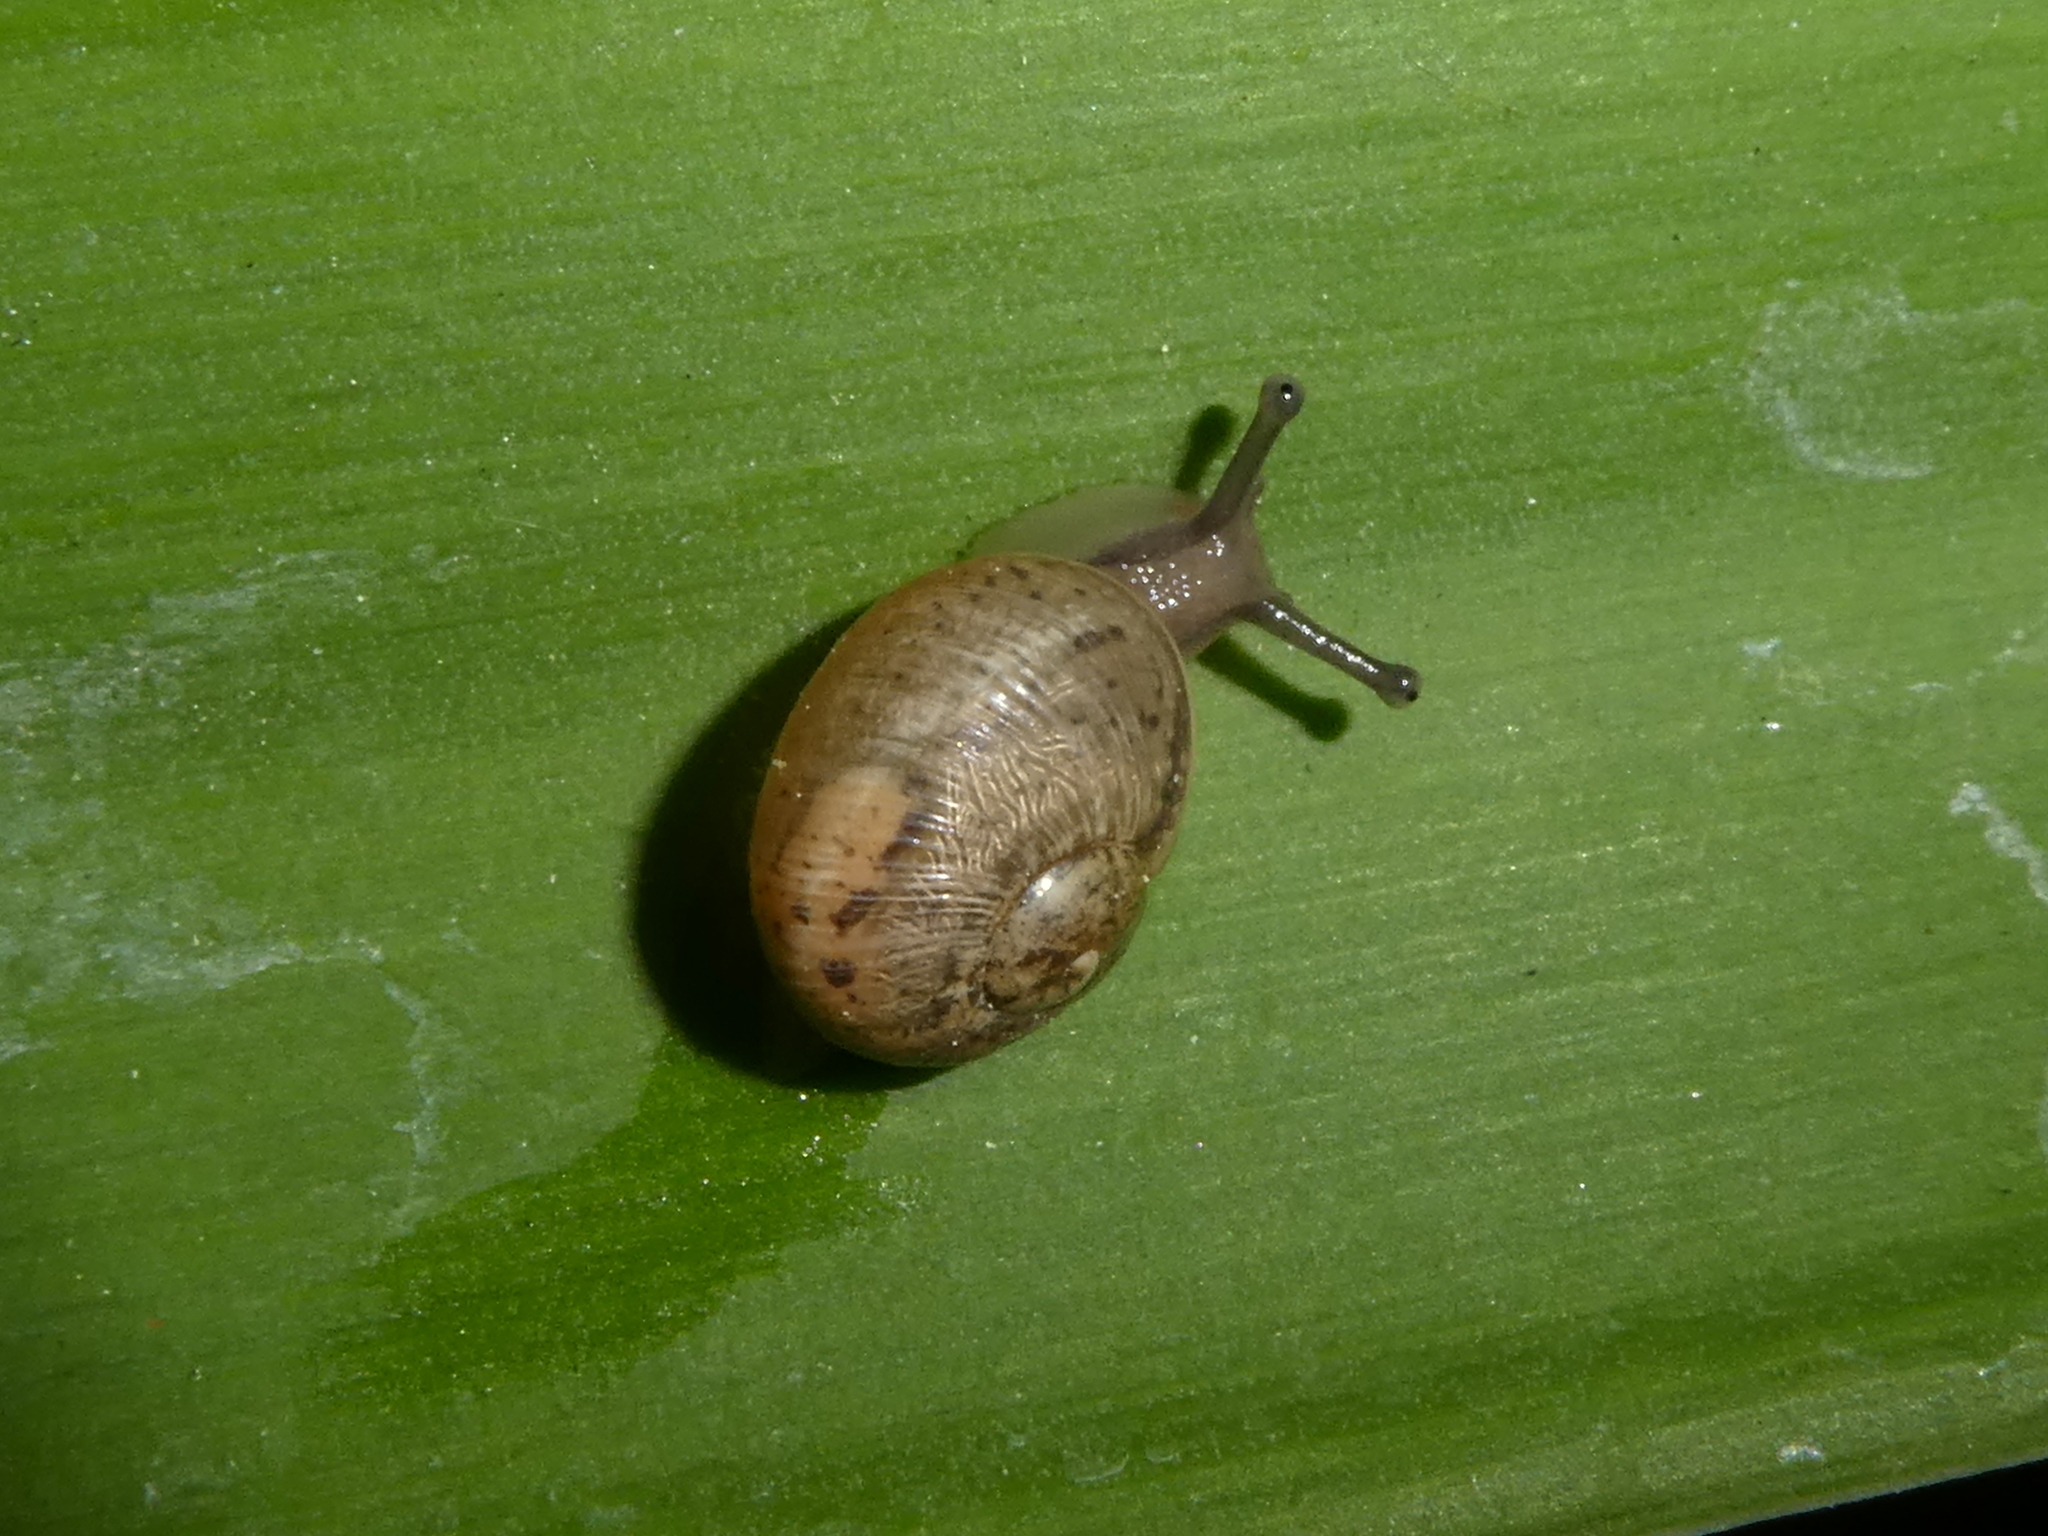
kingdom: Animalia
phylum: Mollusca
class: Gastropoda
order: Stylommatophora
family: Helicidae
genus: Cornu
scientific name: Cornu aspersum
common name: Brown garden snail
